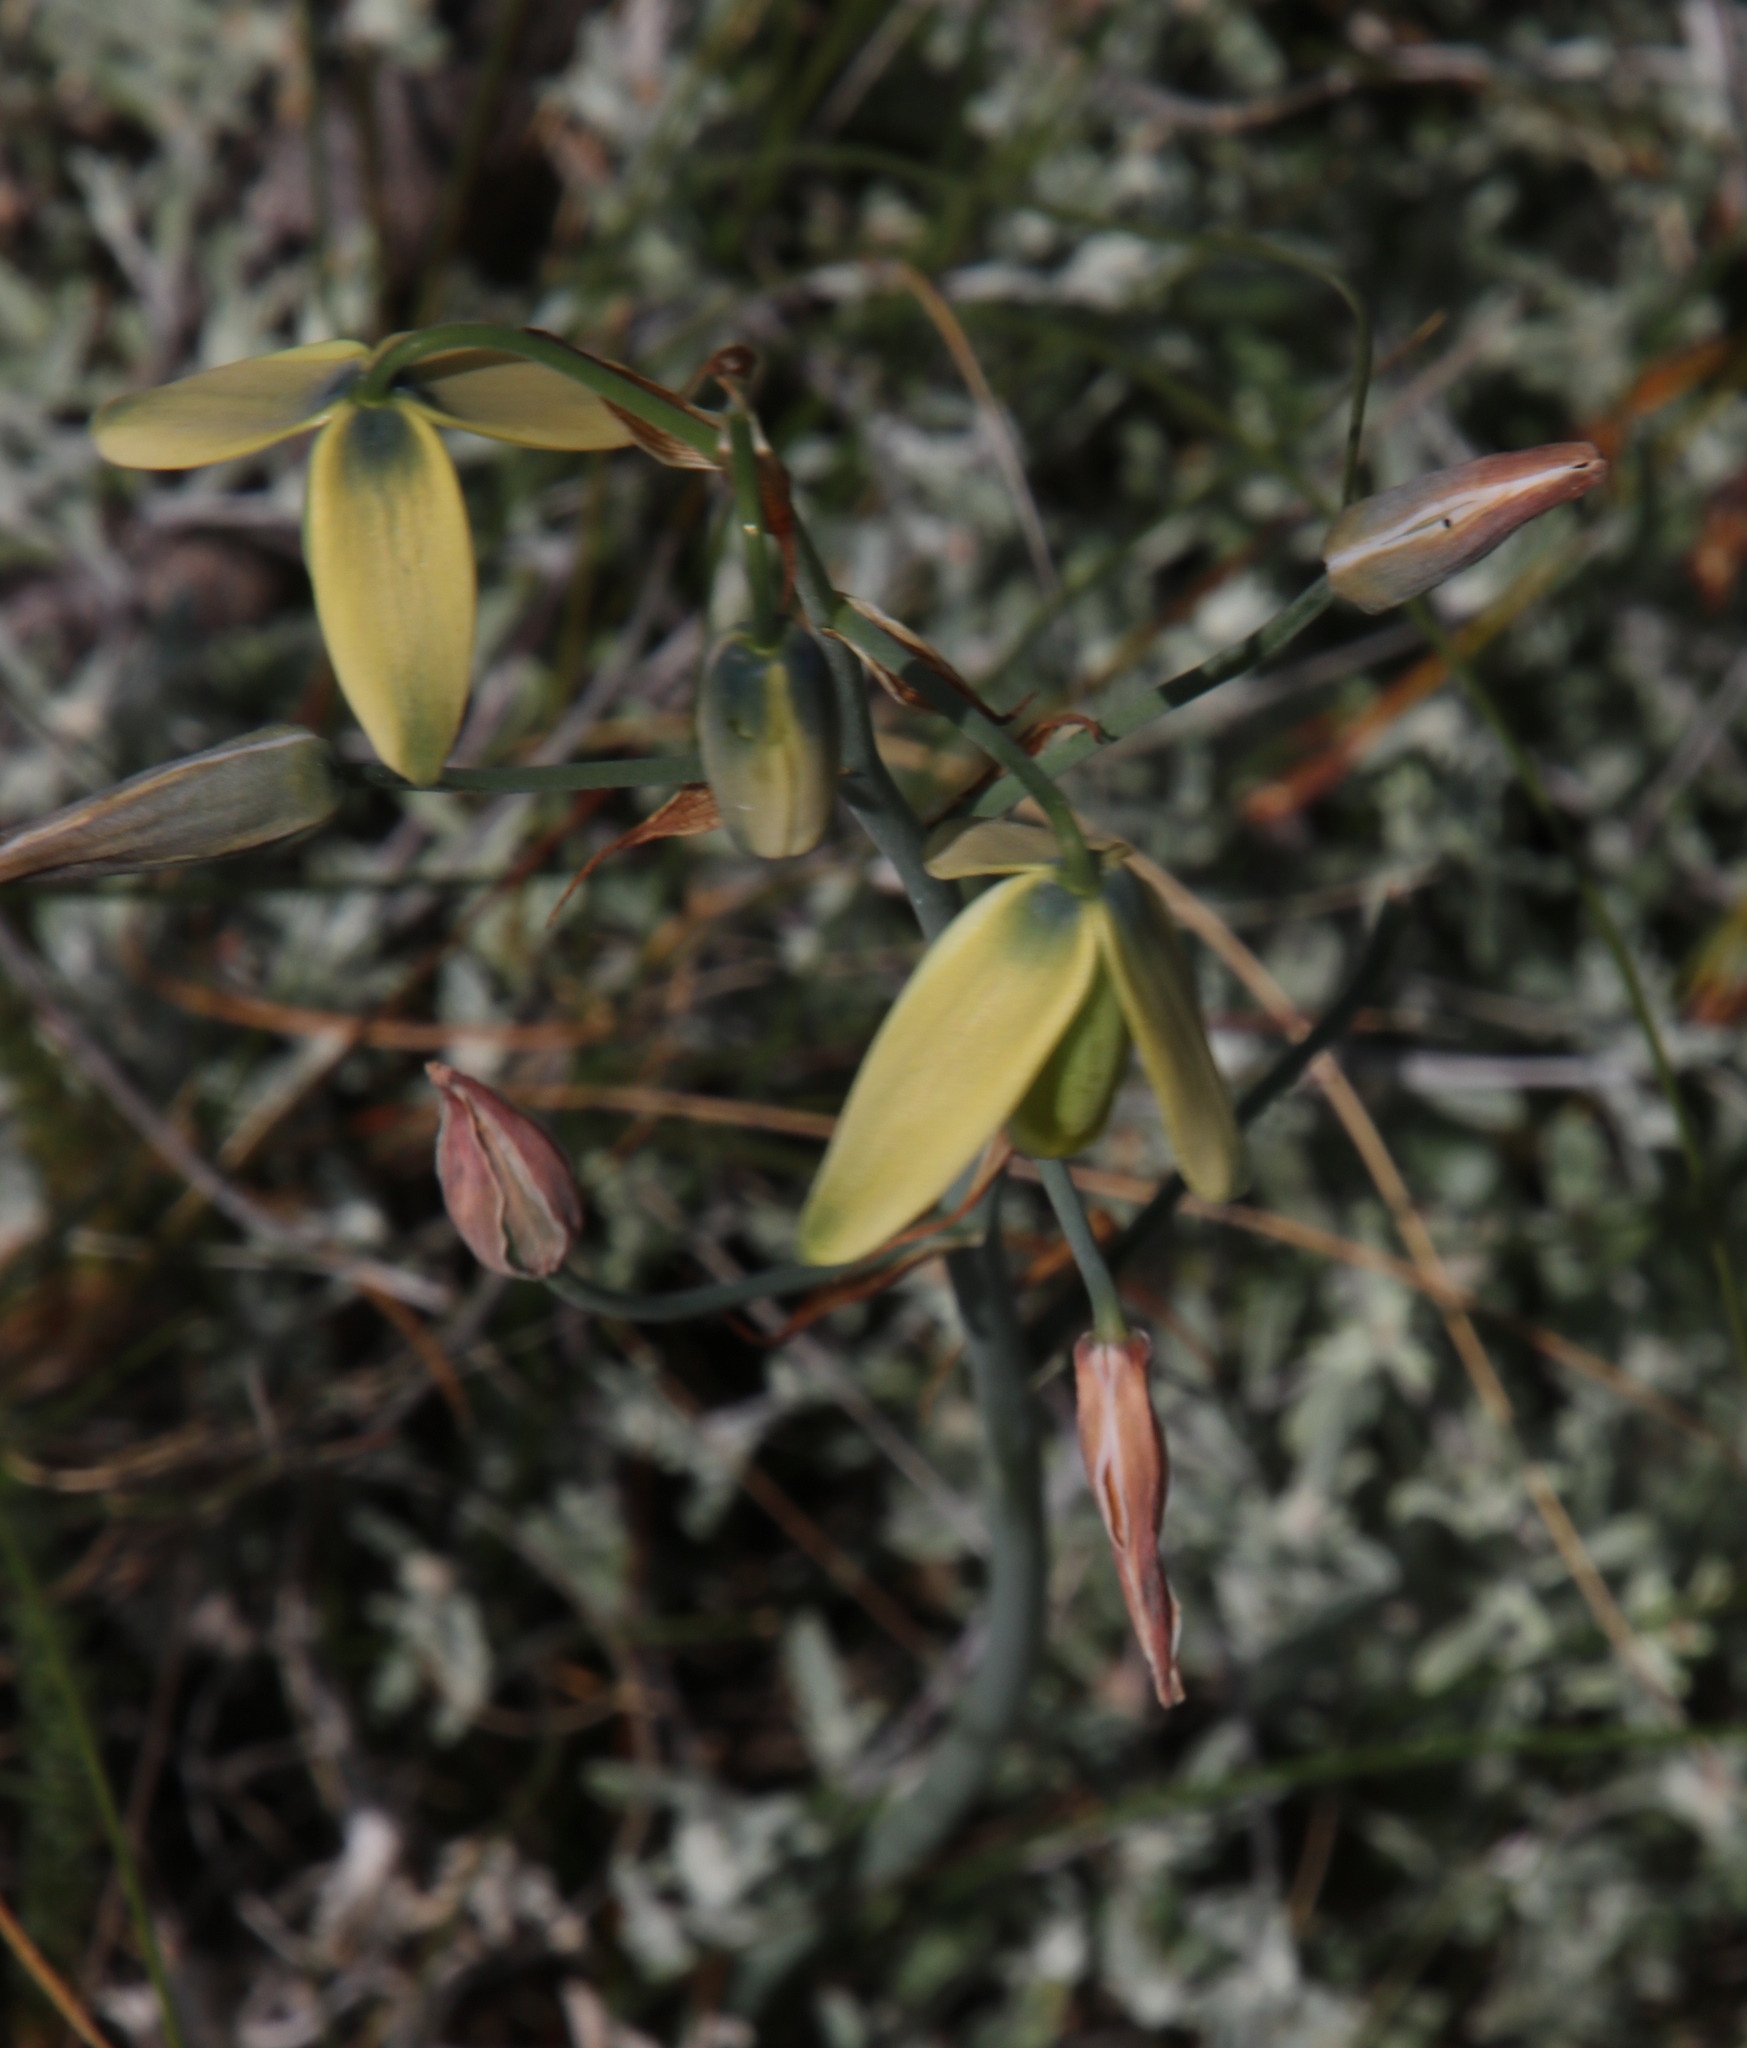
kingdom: Plantae
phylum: Tracheophyta
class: Liliopsida
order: Asparagales
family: Asparagaceae
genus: Albuca
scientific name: Albuca juncifolia
